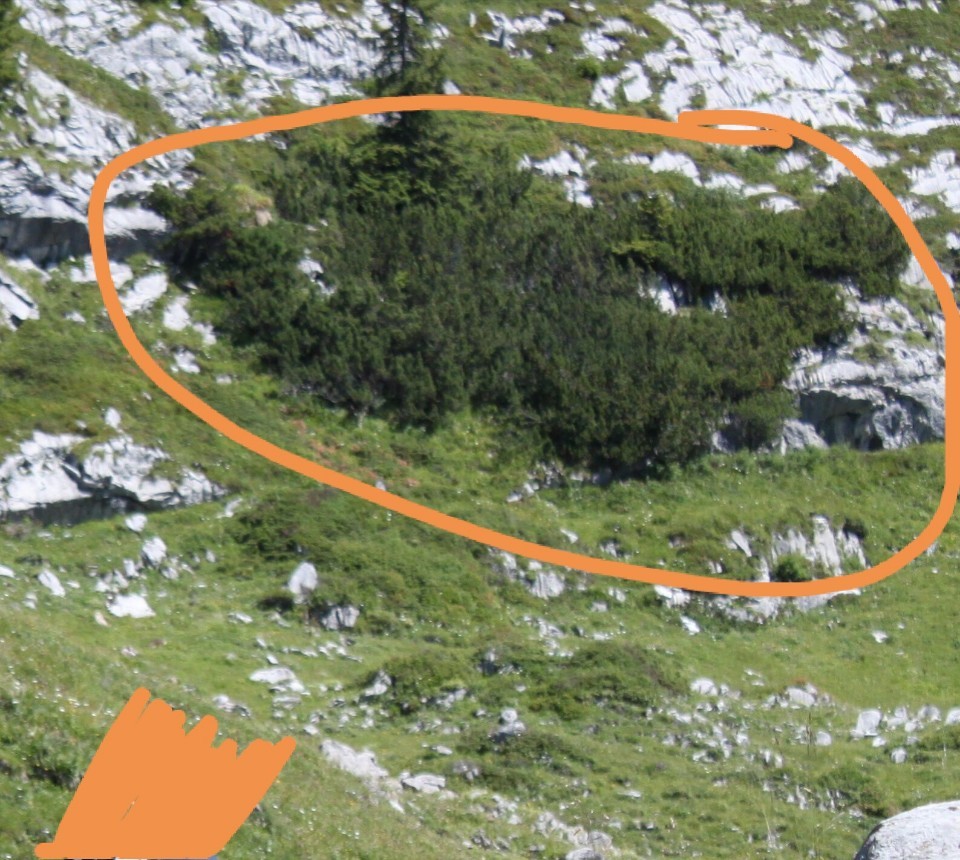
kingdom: Plantae
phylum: Tracheophyta
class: Pinopsida
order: Pinales
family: Pinaceae
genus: Pinus
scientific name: Pinus mugo
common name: Mugo pine
